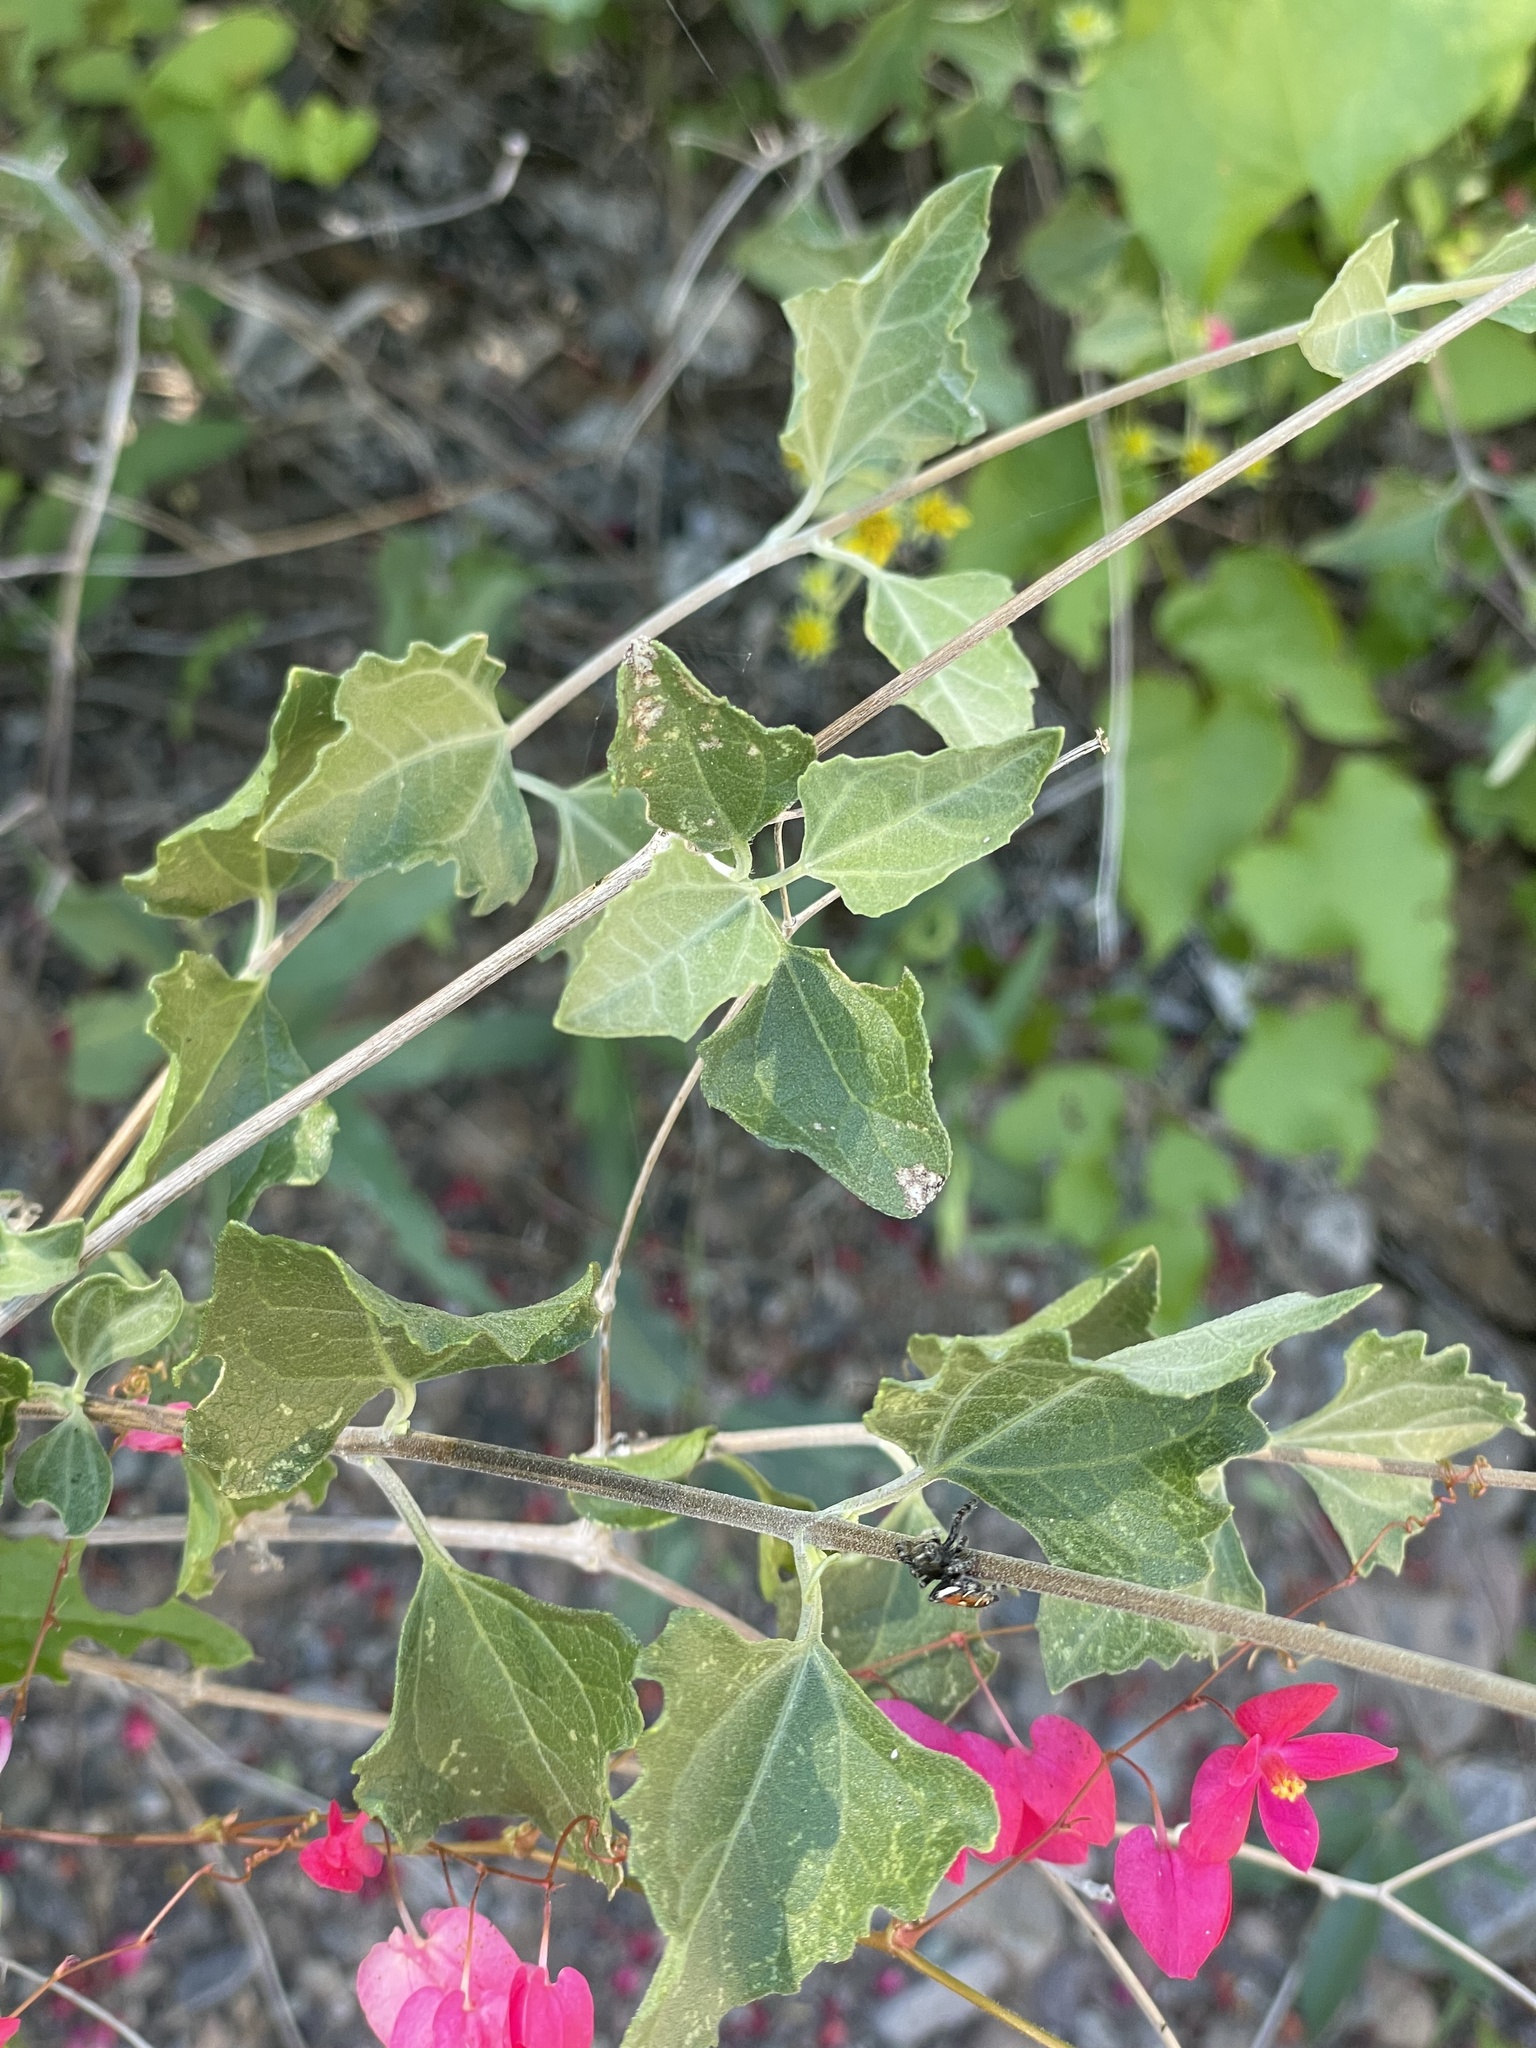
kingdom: Plantae
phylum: Tracheophyta
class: Magnoliopsida
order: Asterales
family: Asteraceae
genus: Bahiopsis
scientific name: Bahiopsis triangularis
